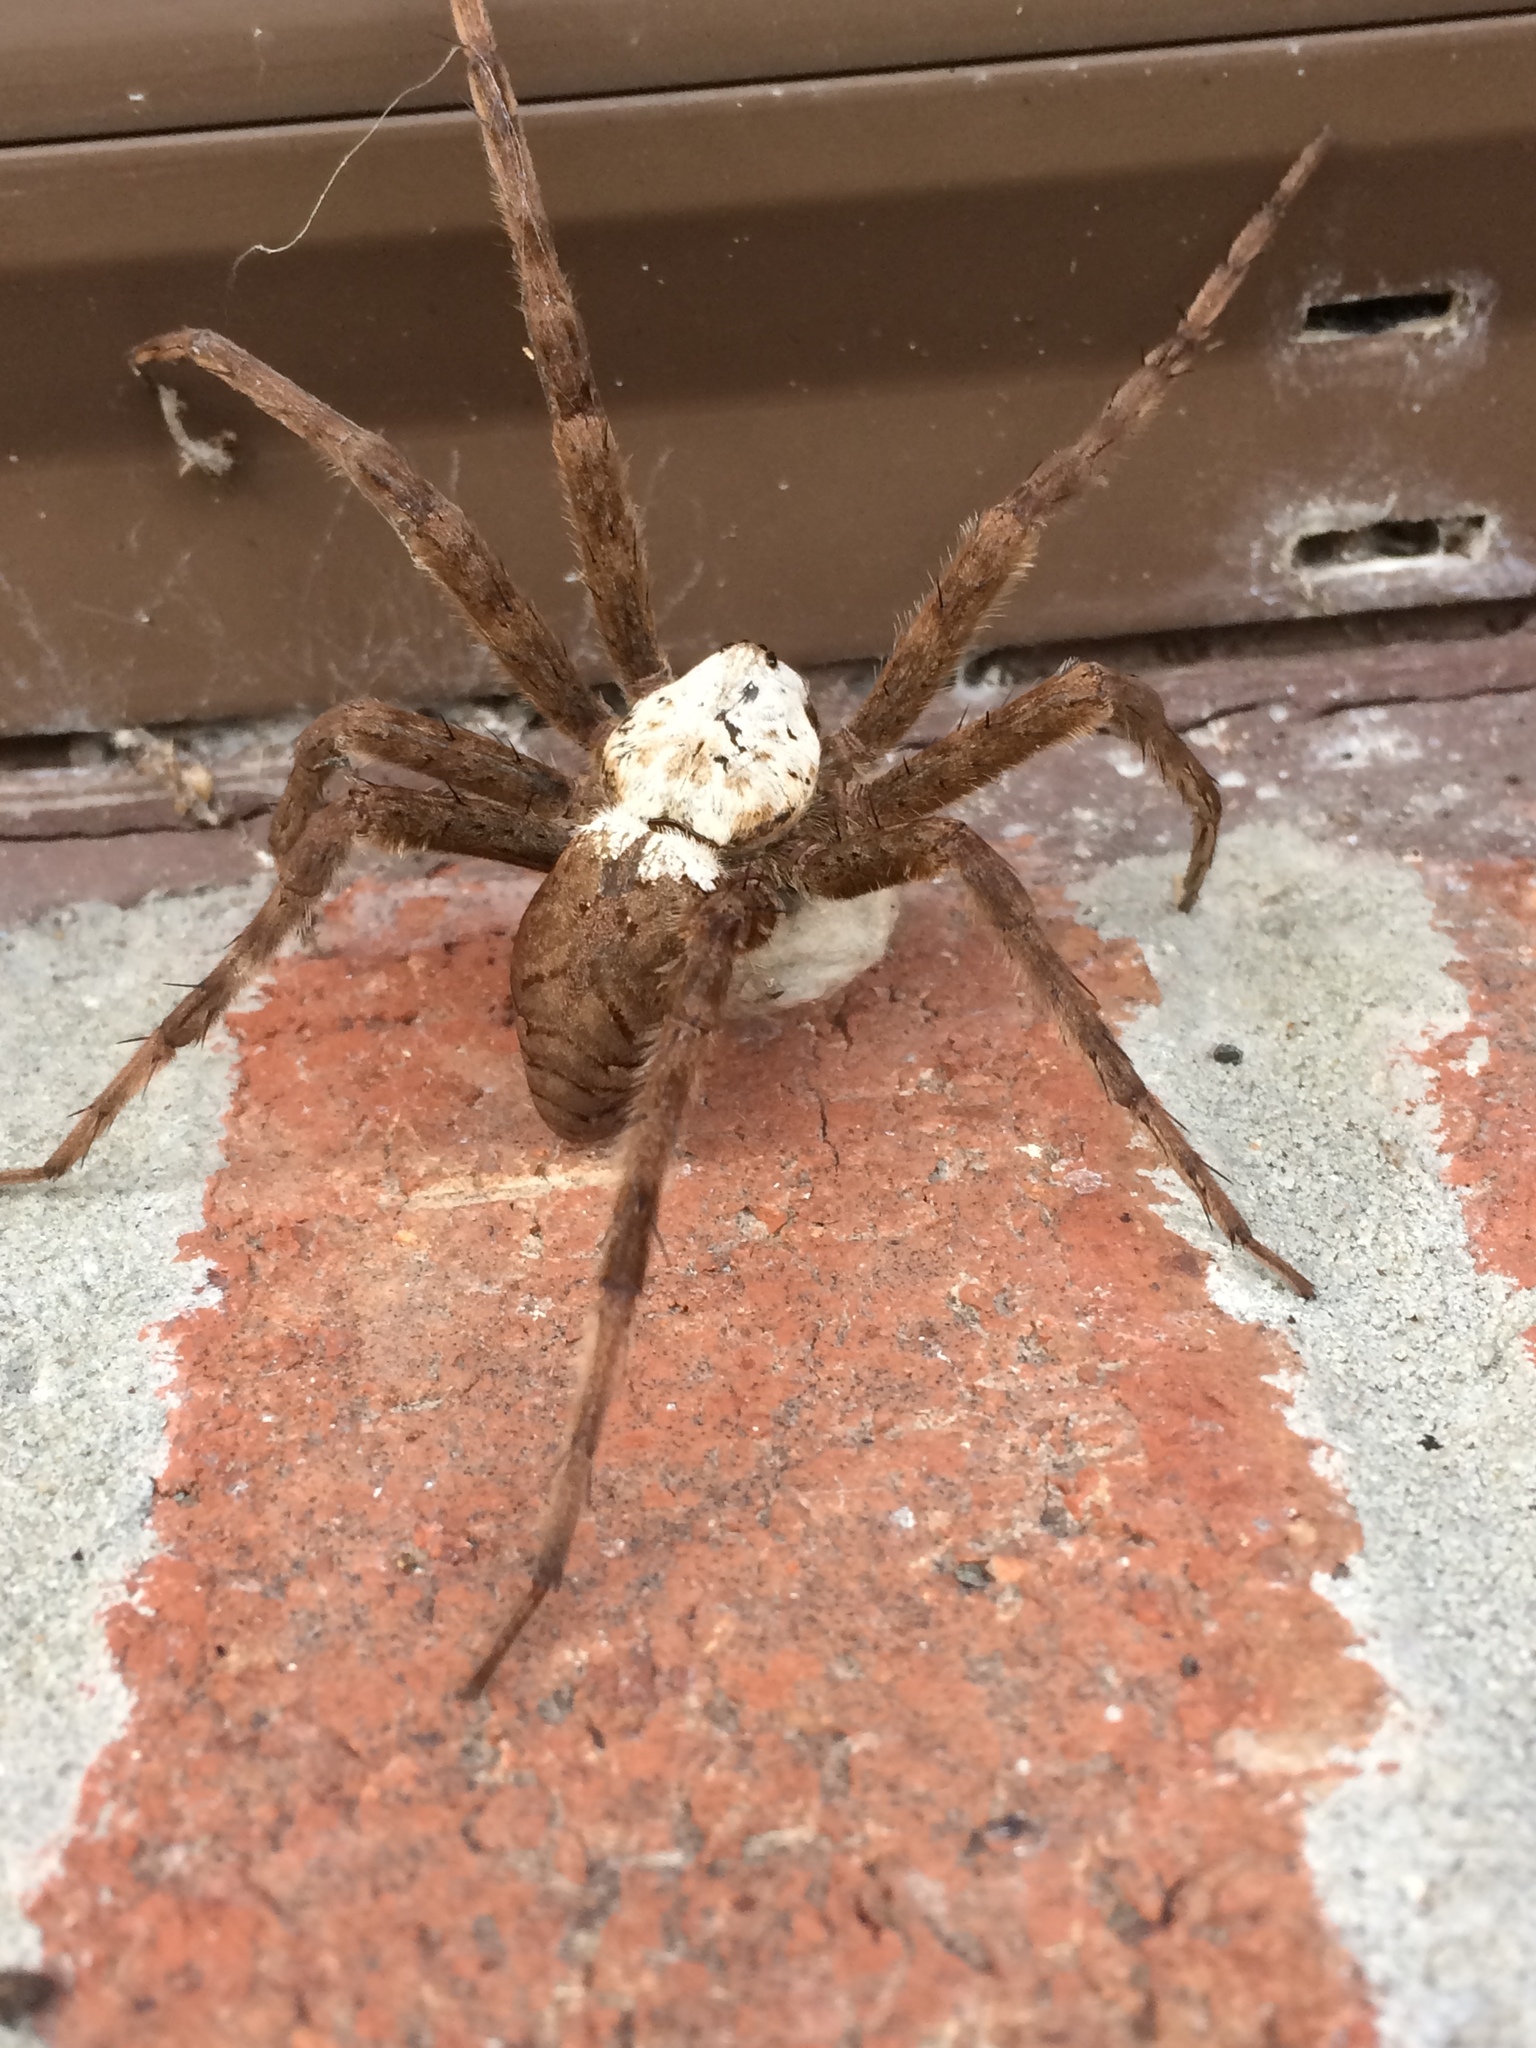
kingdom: Animalia
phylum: Arthropoda
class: Arachnida
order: Araneae
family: Pisauridae
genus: Dolomedes
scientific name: Dolomedes albineus
